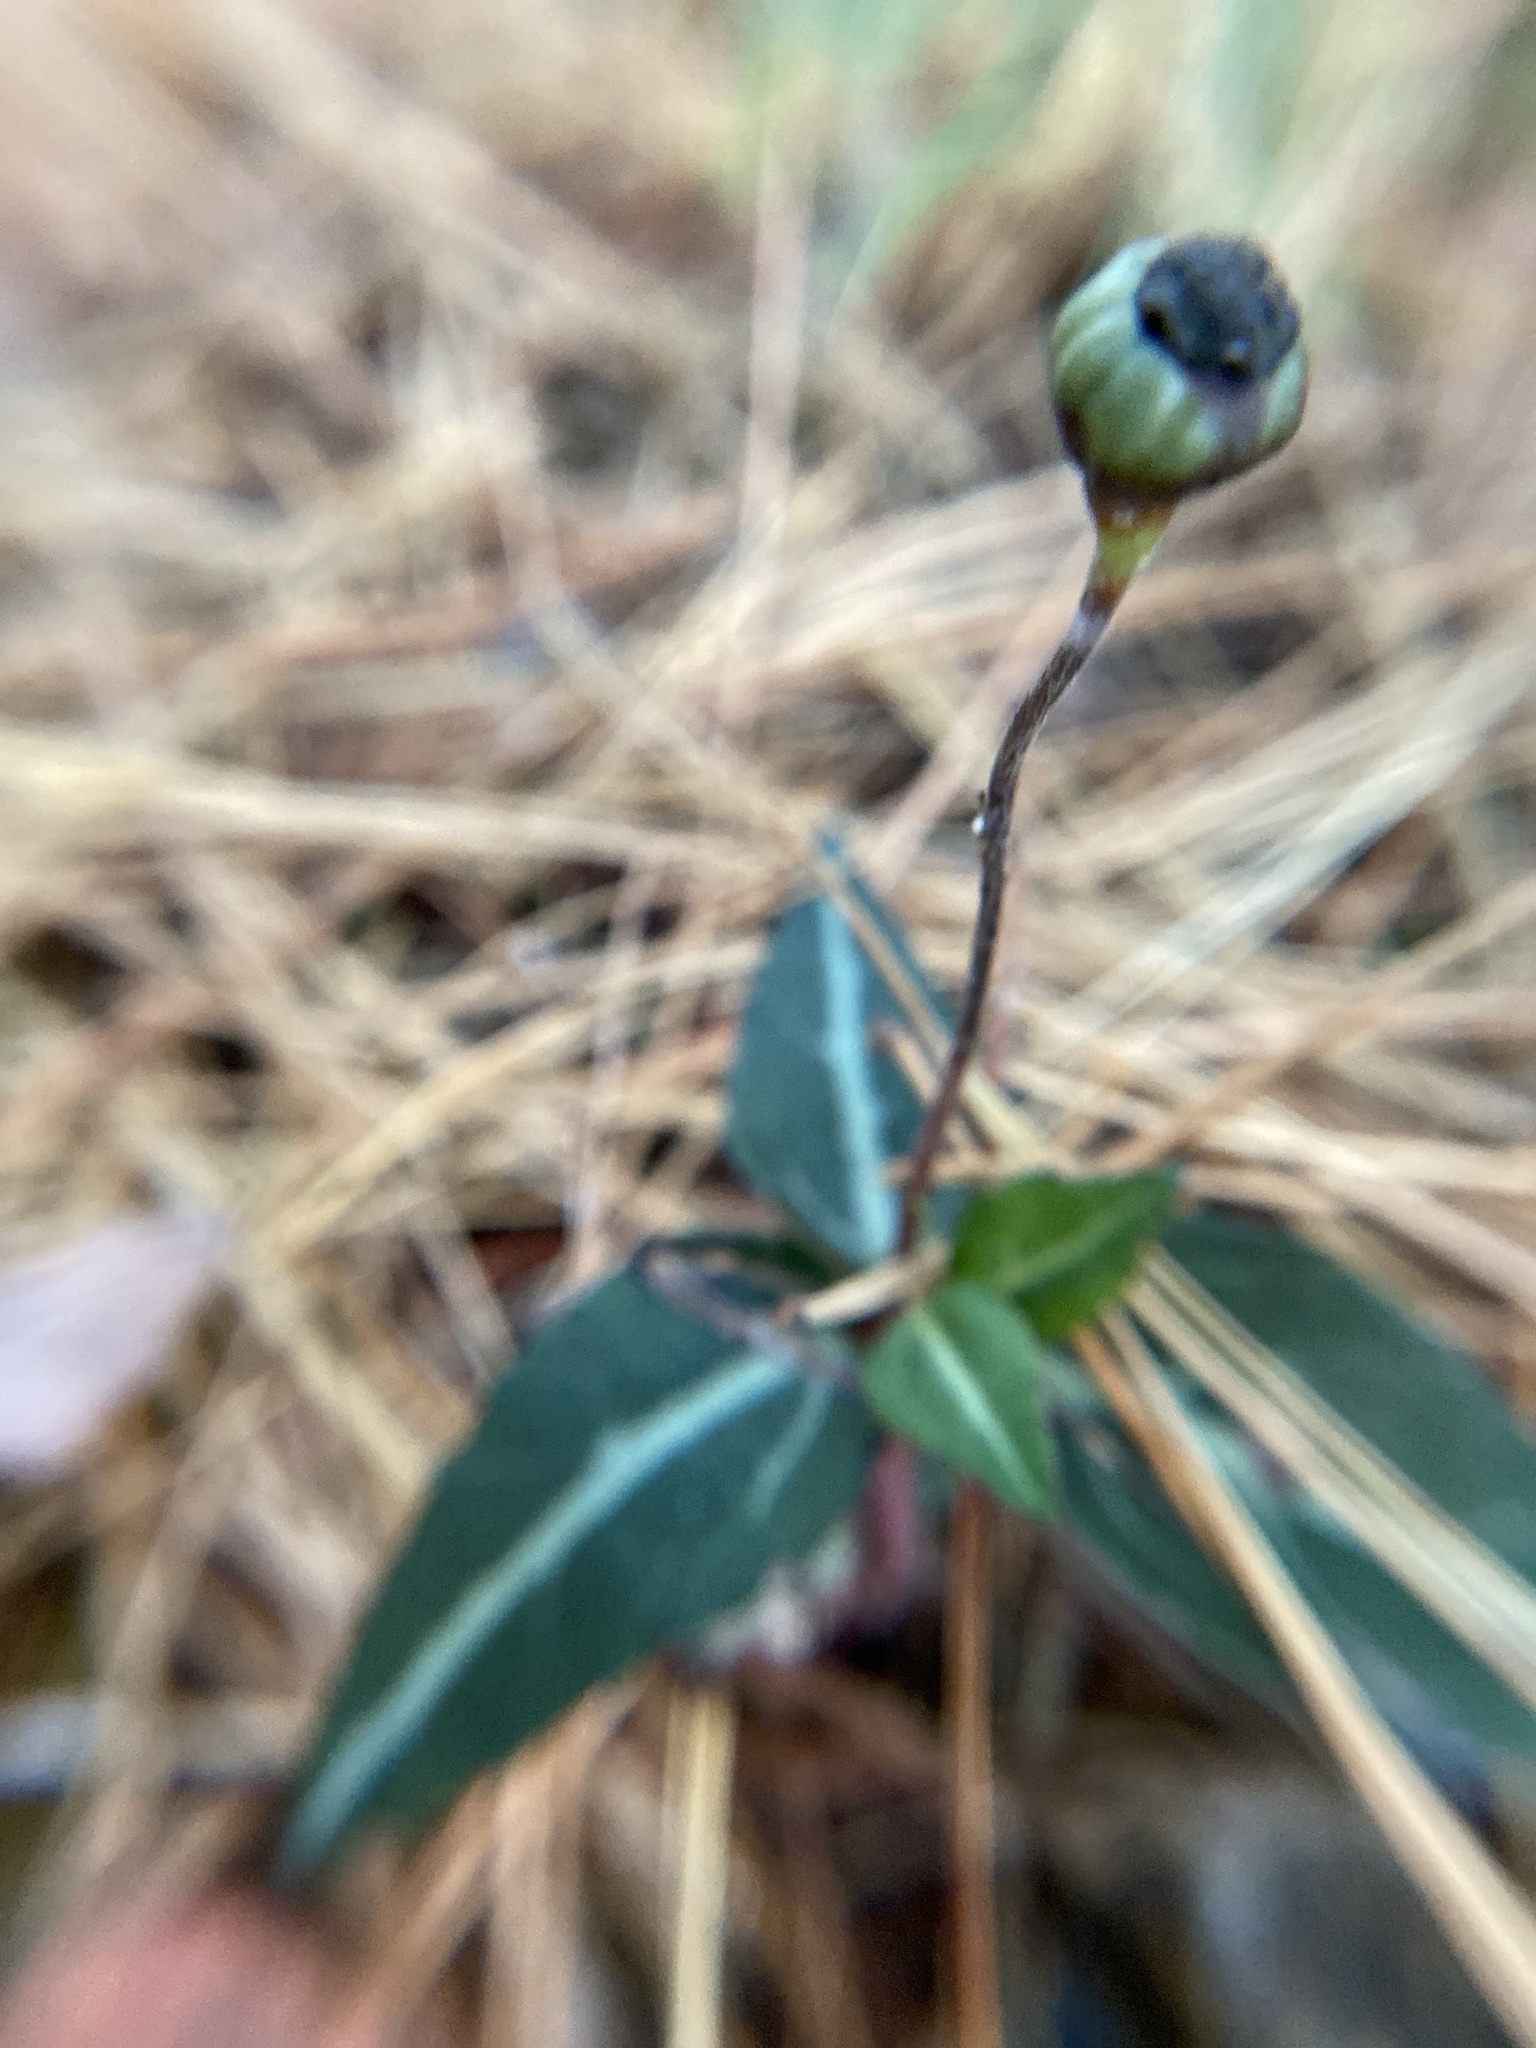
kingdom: Plantae
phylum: Tracheophyta
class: Magnoliopsida
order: Ericales
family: Ericaceae
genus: Chimaphila
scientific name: Chimaphila maculata
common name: Spotted pipsissewa
